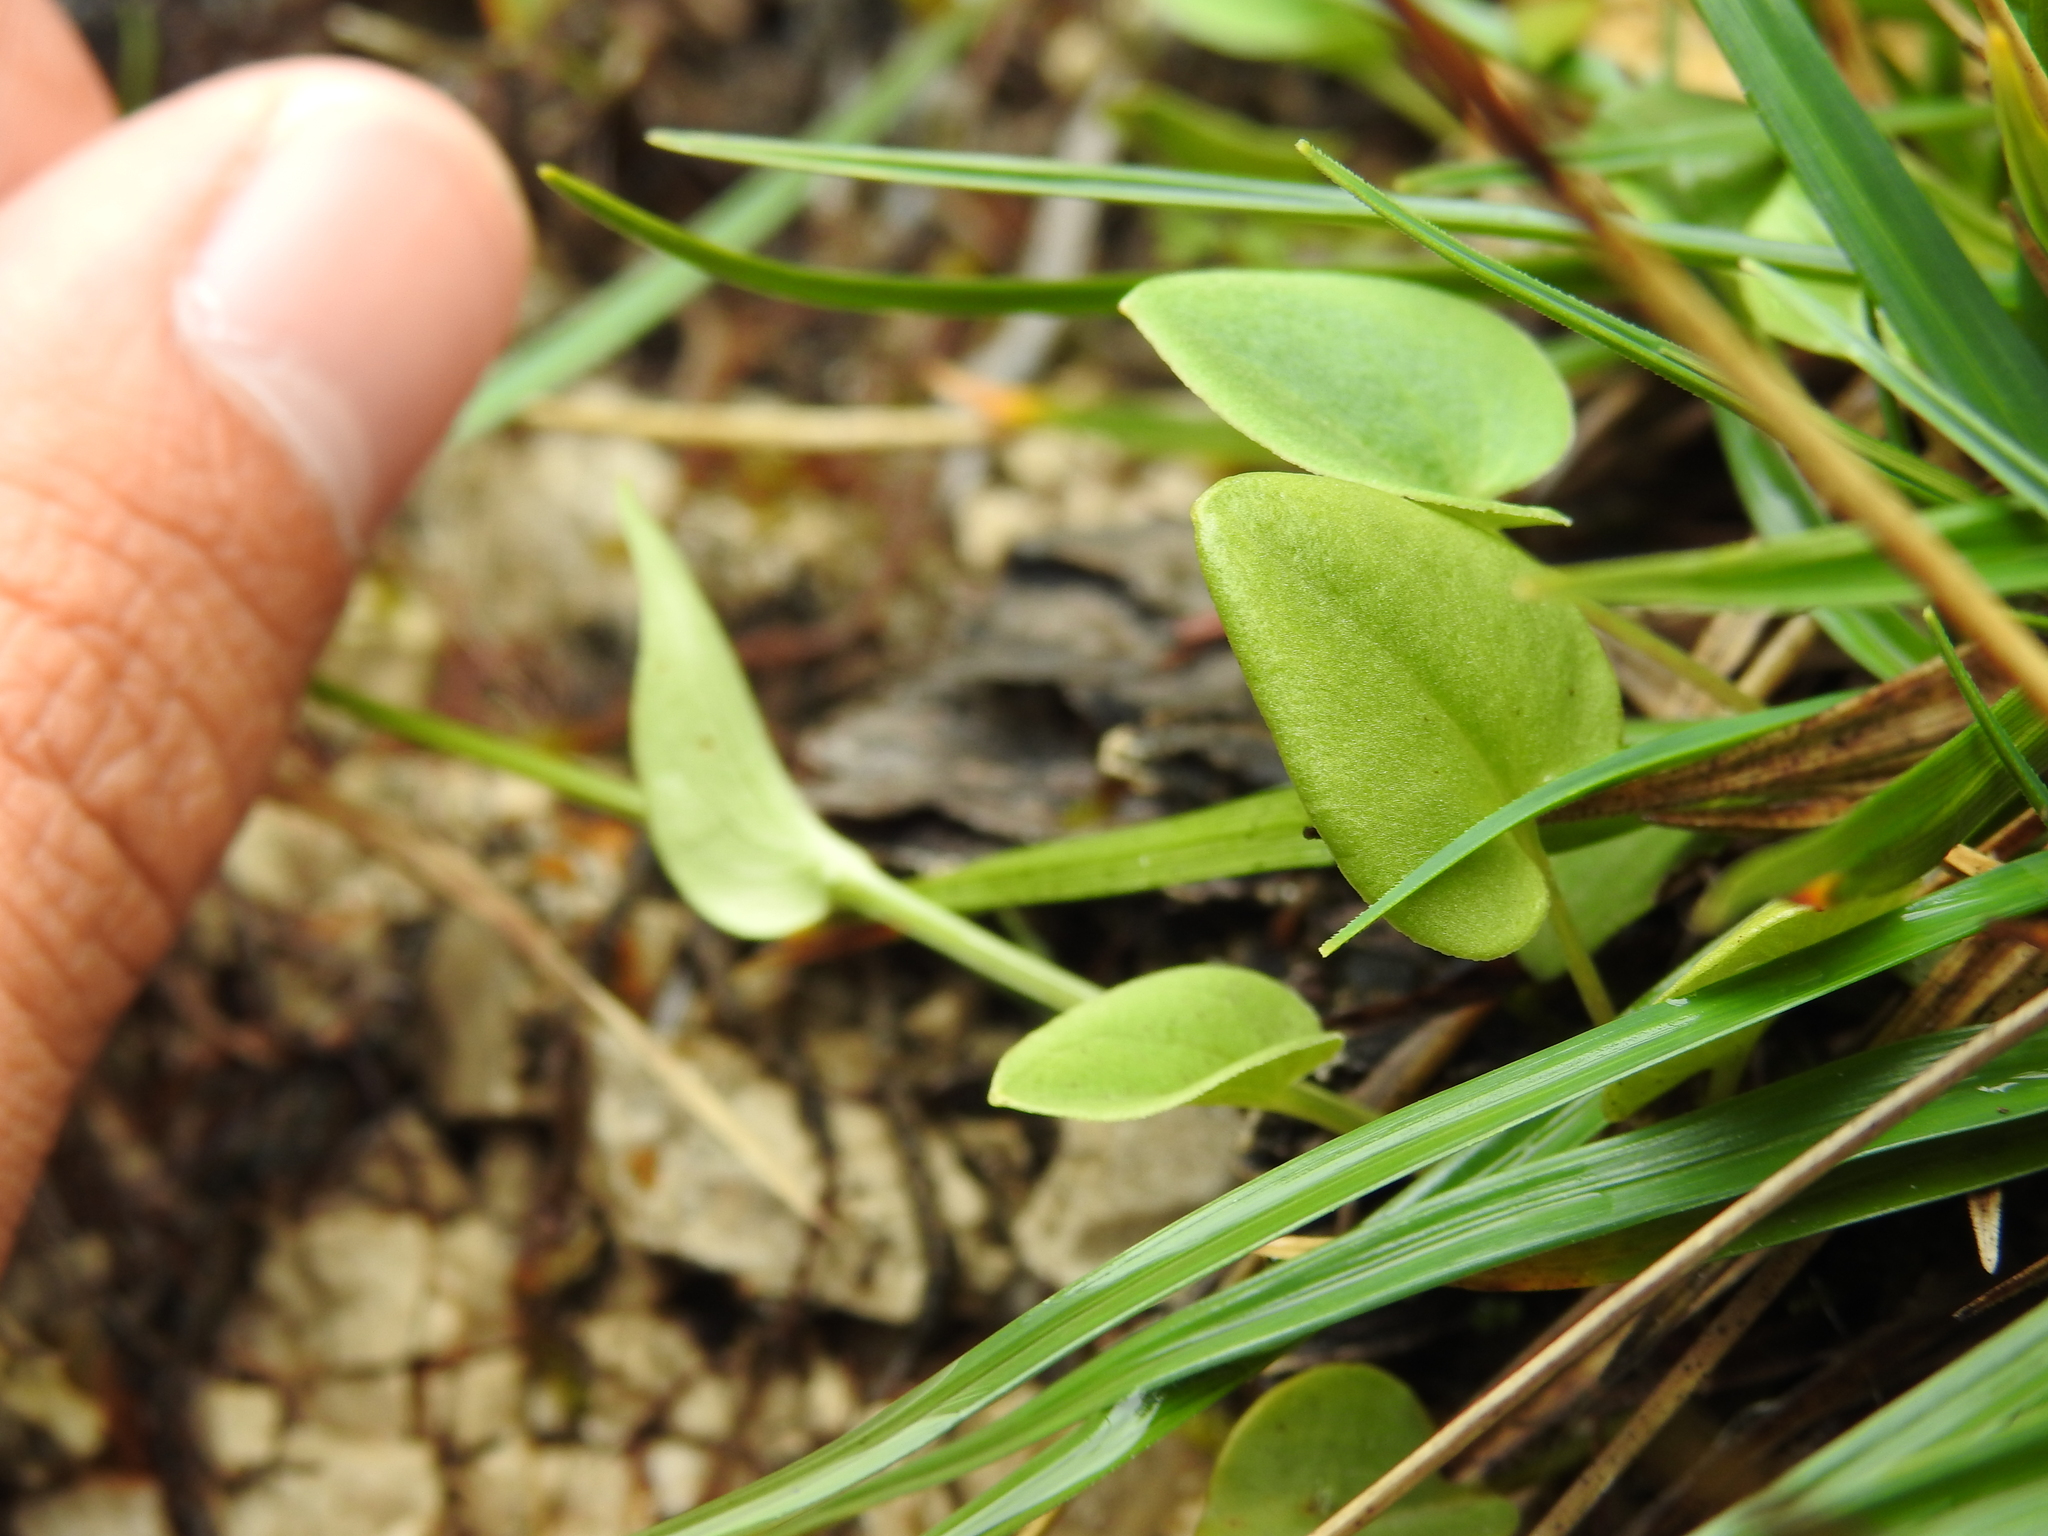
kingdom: Plantae
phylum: Tracheophyta
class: Magnoliopsida
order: Celastrales
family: Parnassiaceae
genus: Parnassia
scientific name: Parnassia palustris
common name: Grass-of-parnassus
